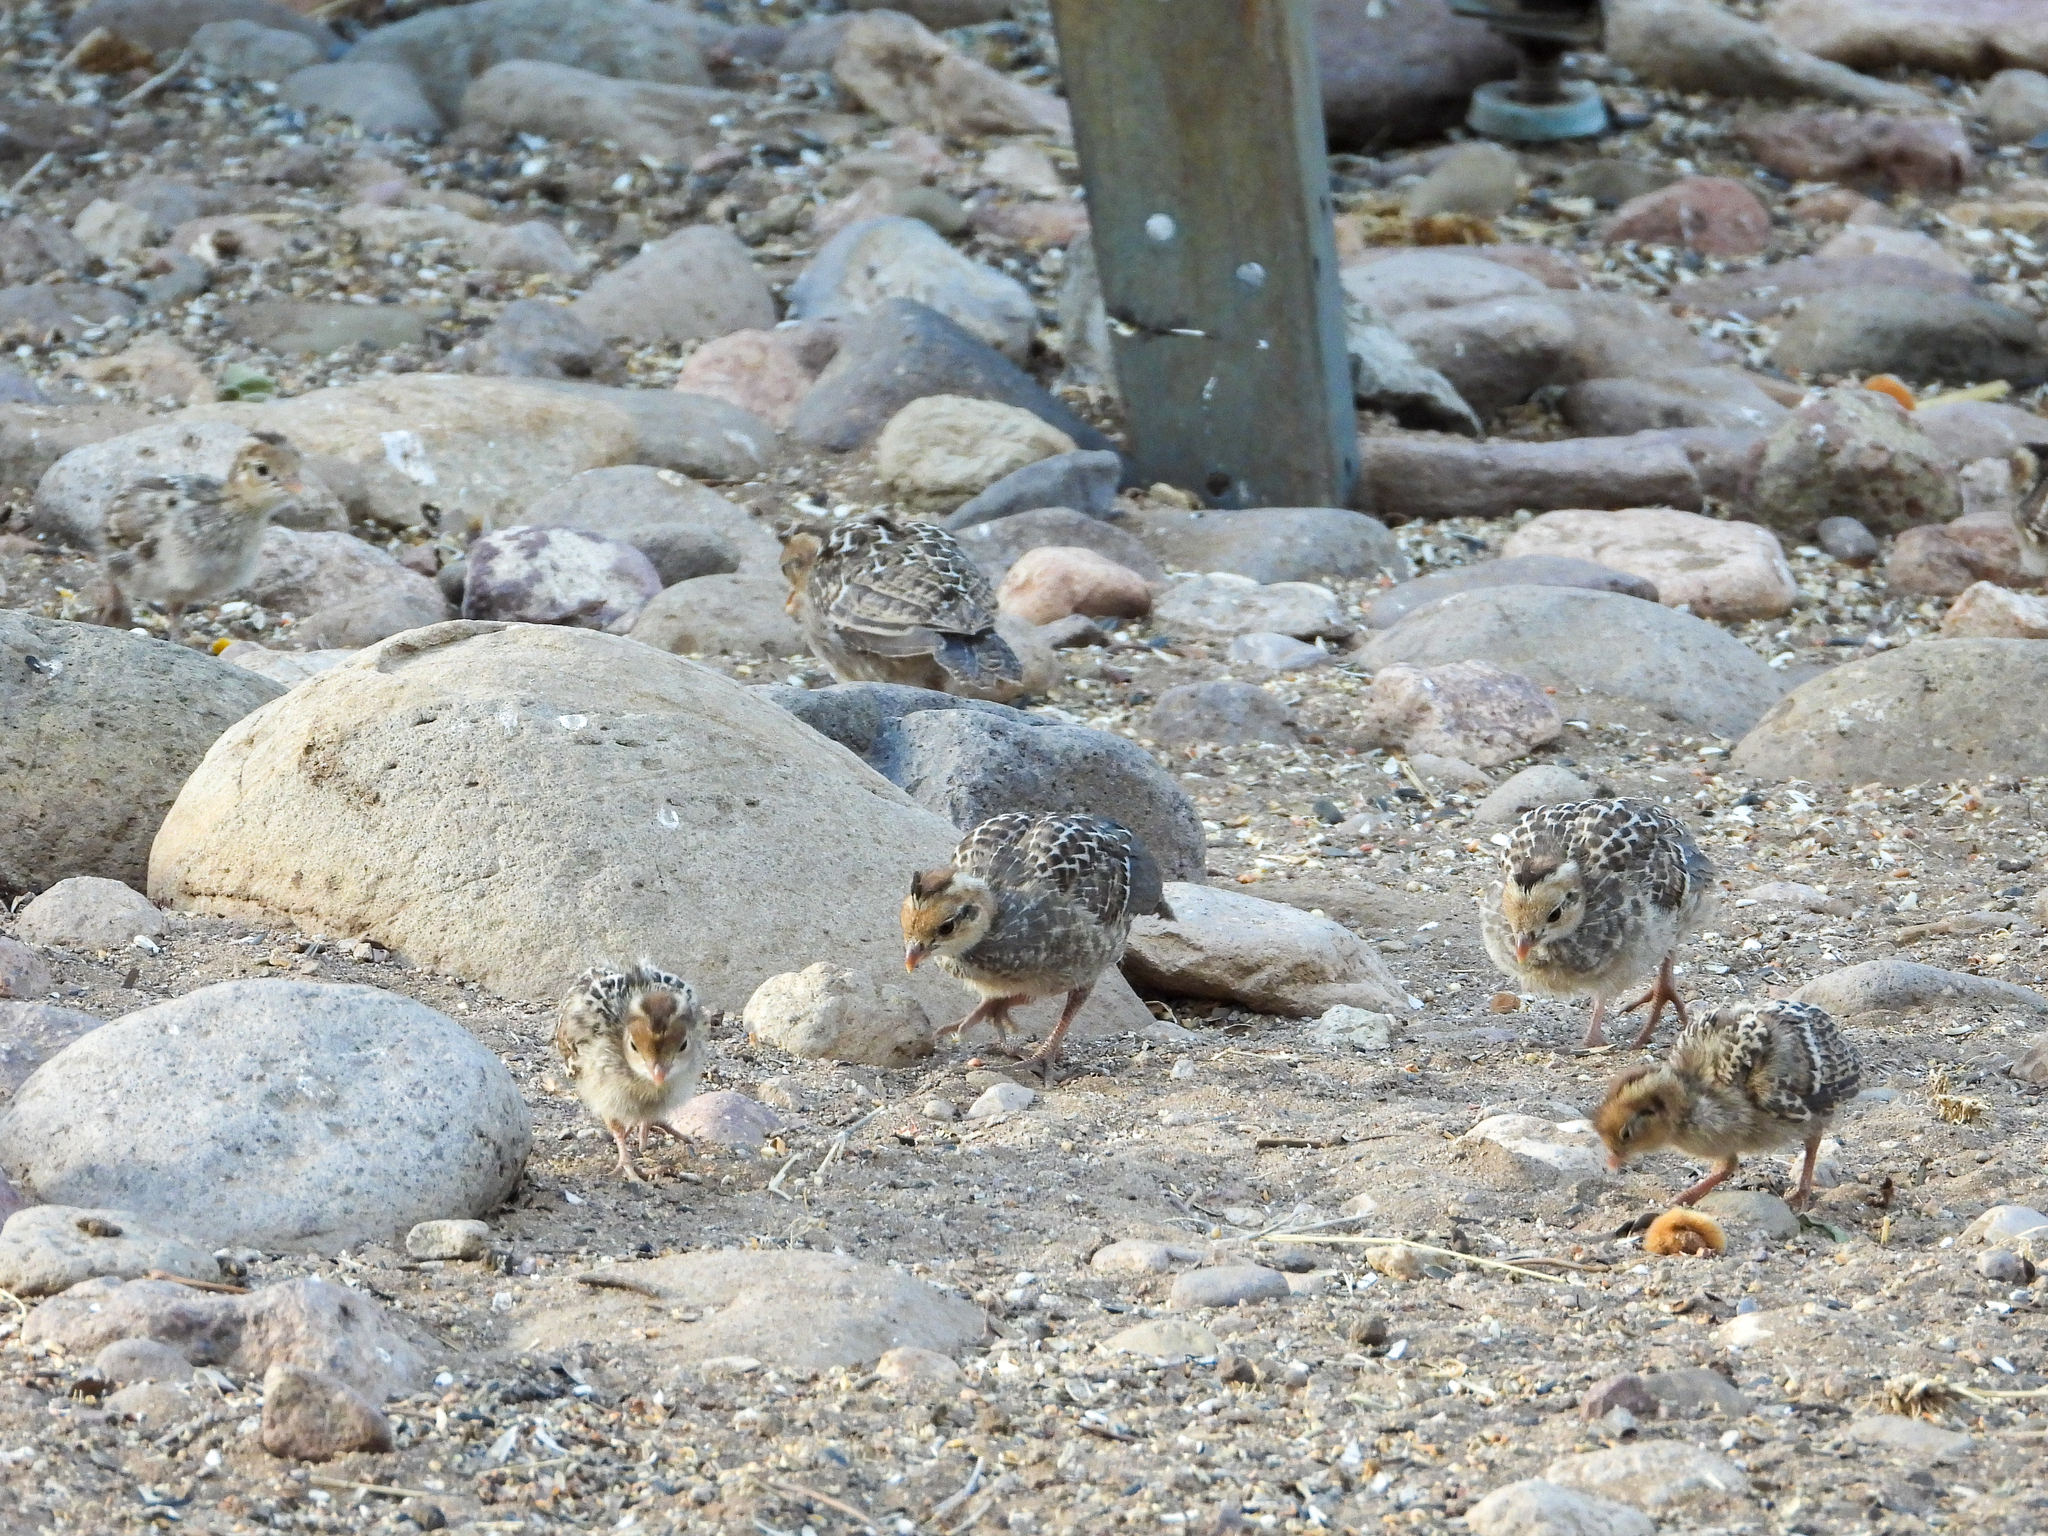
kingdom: Animalia
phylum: Chordata
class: Aves
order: Galliformes
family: Odontophoridae
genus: Callipepla
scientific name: Callipepla gambelii
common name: Gambel's quail
